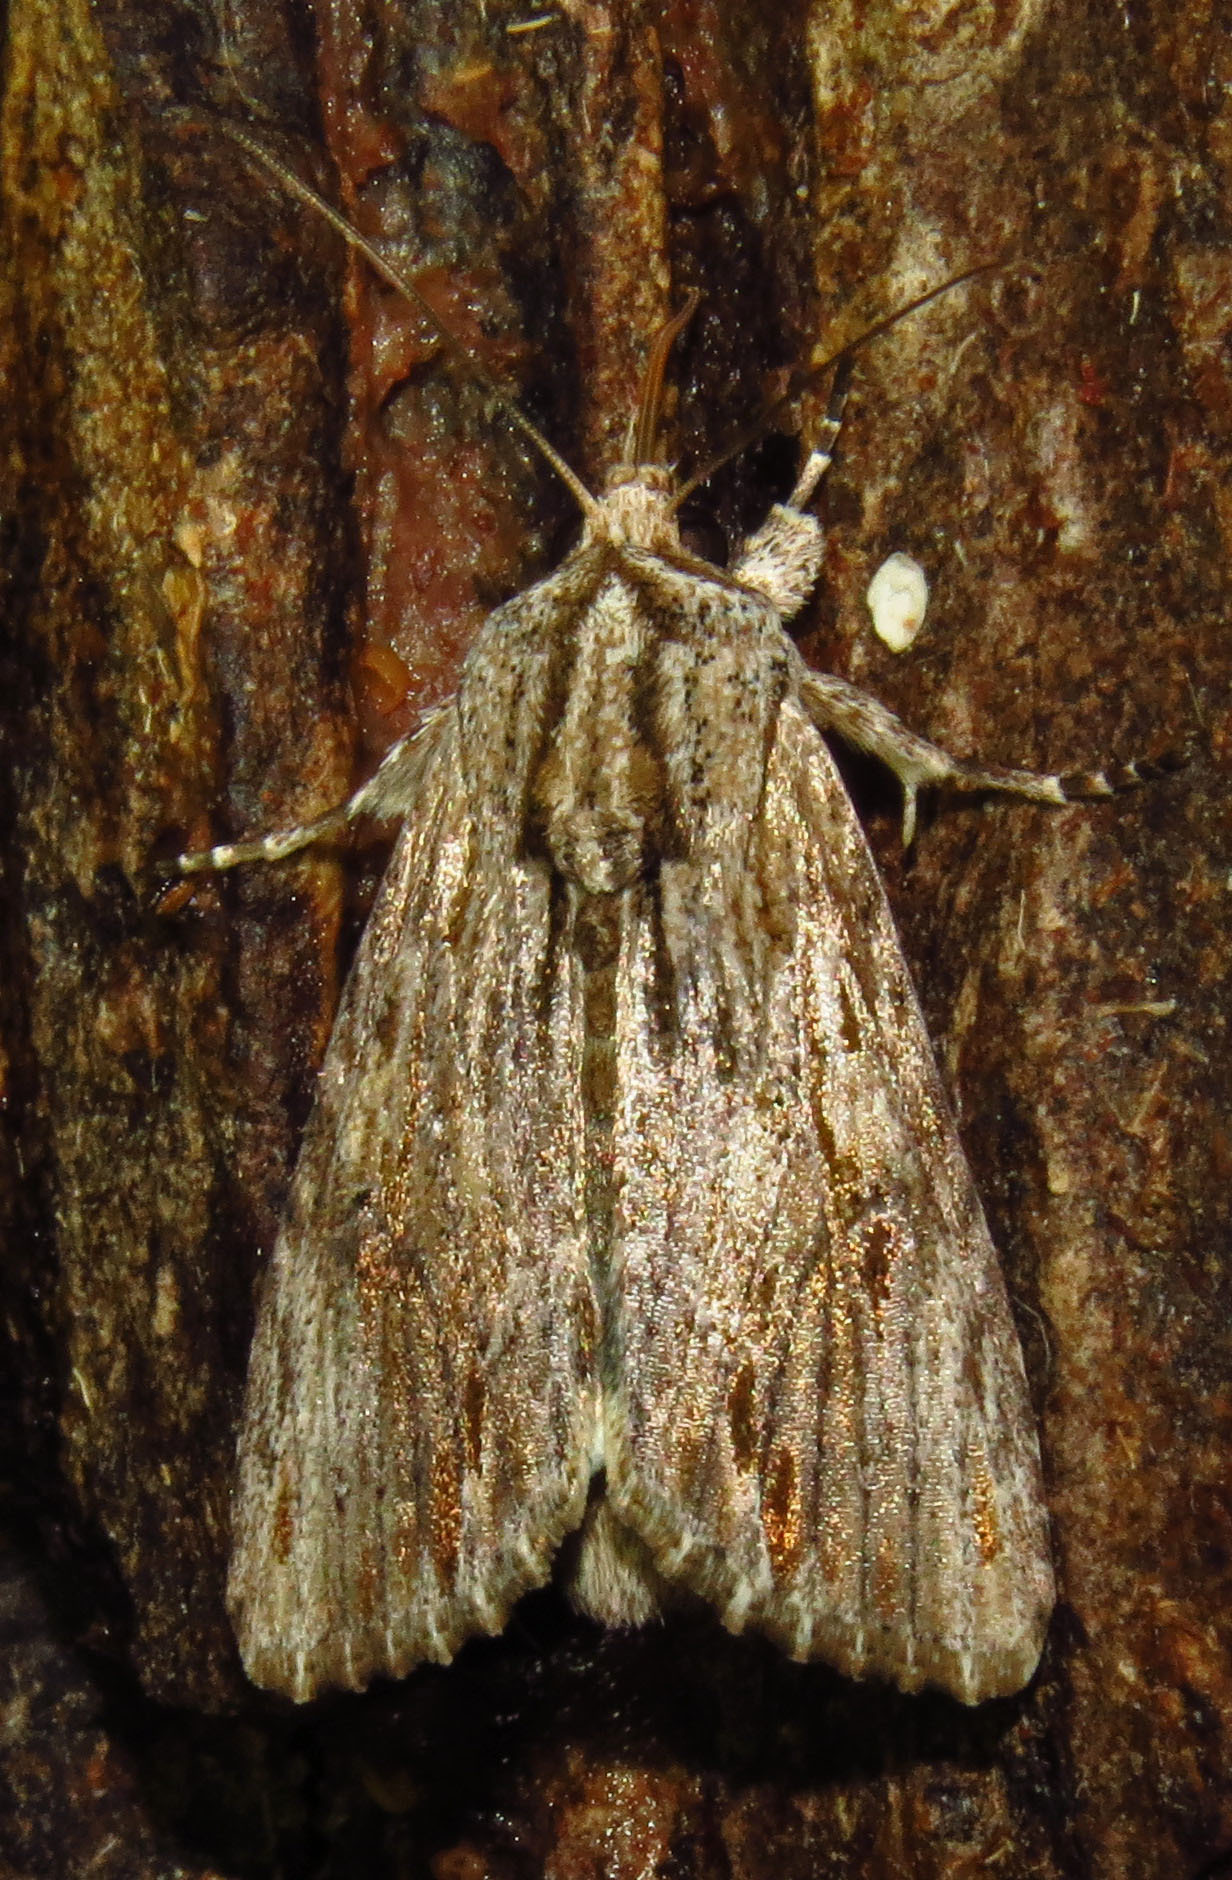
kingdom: Animalia
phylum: Arthropoda
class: Insecta
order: Lepidoptera
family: Noctuidae
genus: Spodoptera
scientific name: Spodoptera eridania
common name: Southern army worm
